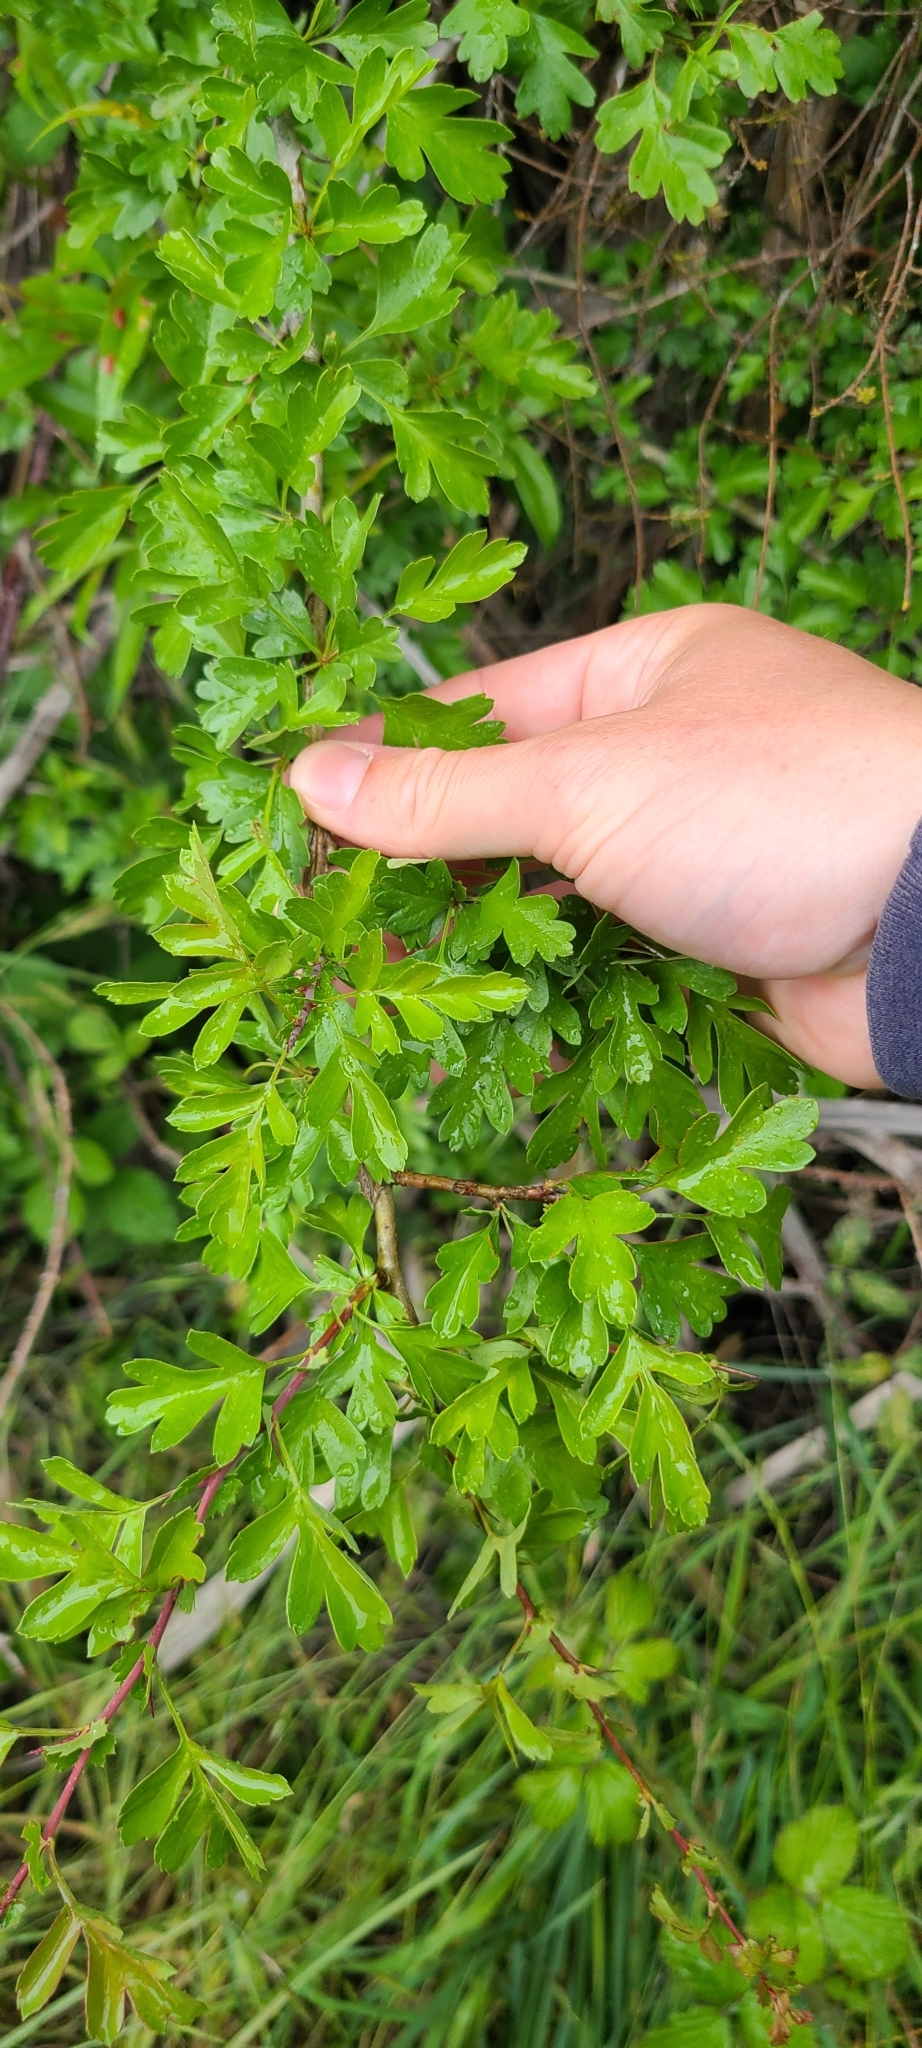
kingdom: Plantae
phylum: Tracheophyta
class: Magnoliopsida
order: Rosales
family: Rosaceae
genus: Crataegus
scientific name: Crataegus monogyna
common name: Hawthorn
